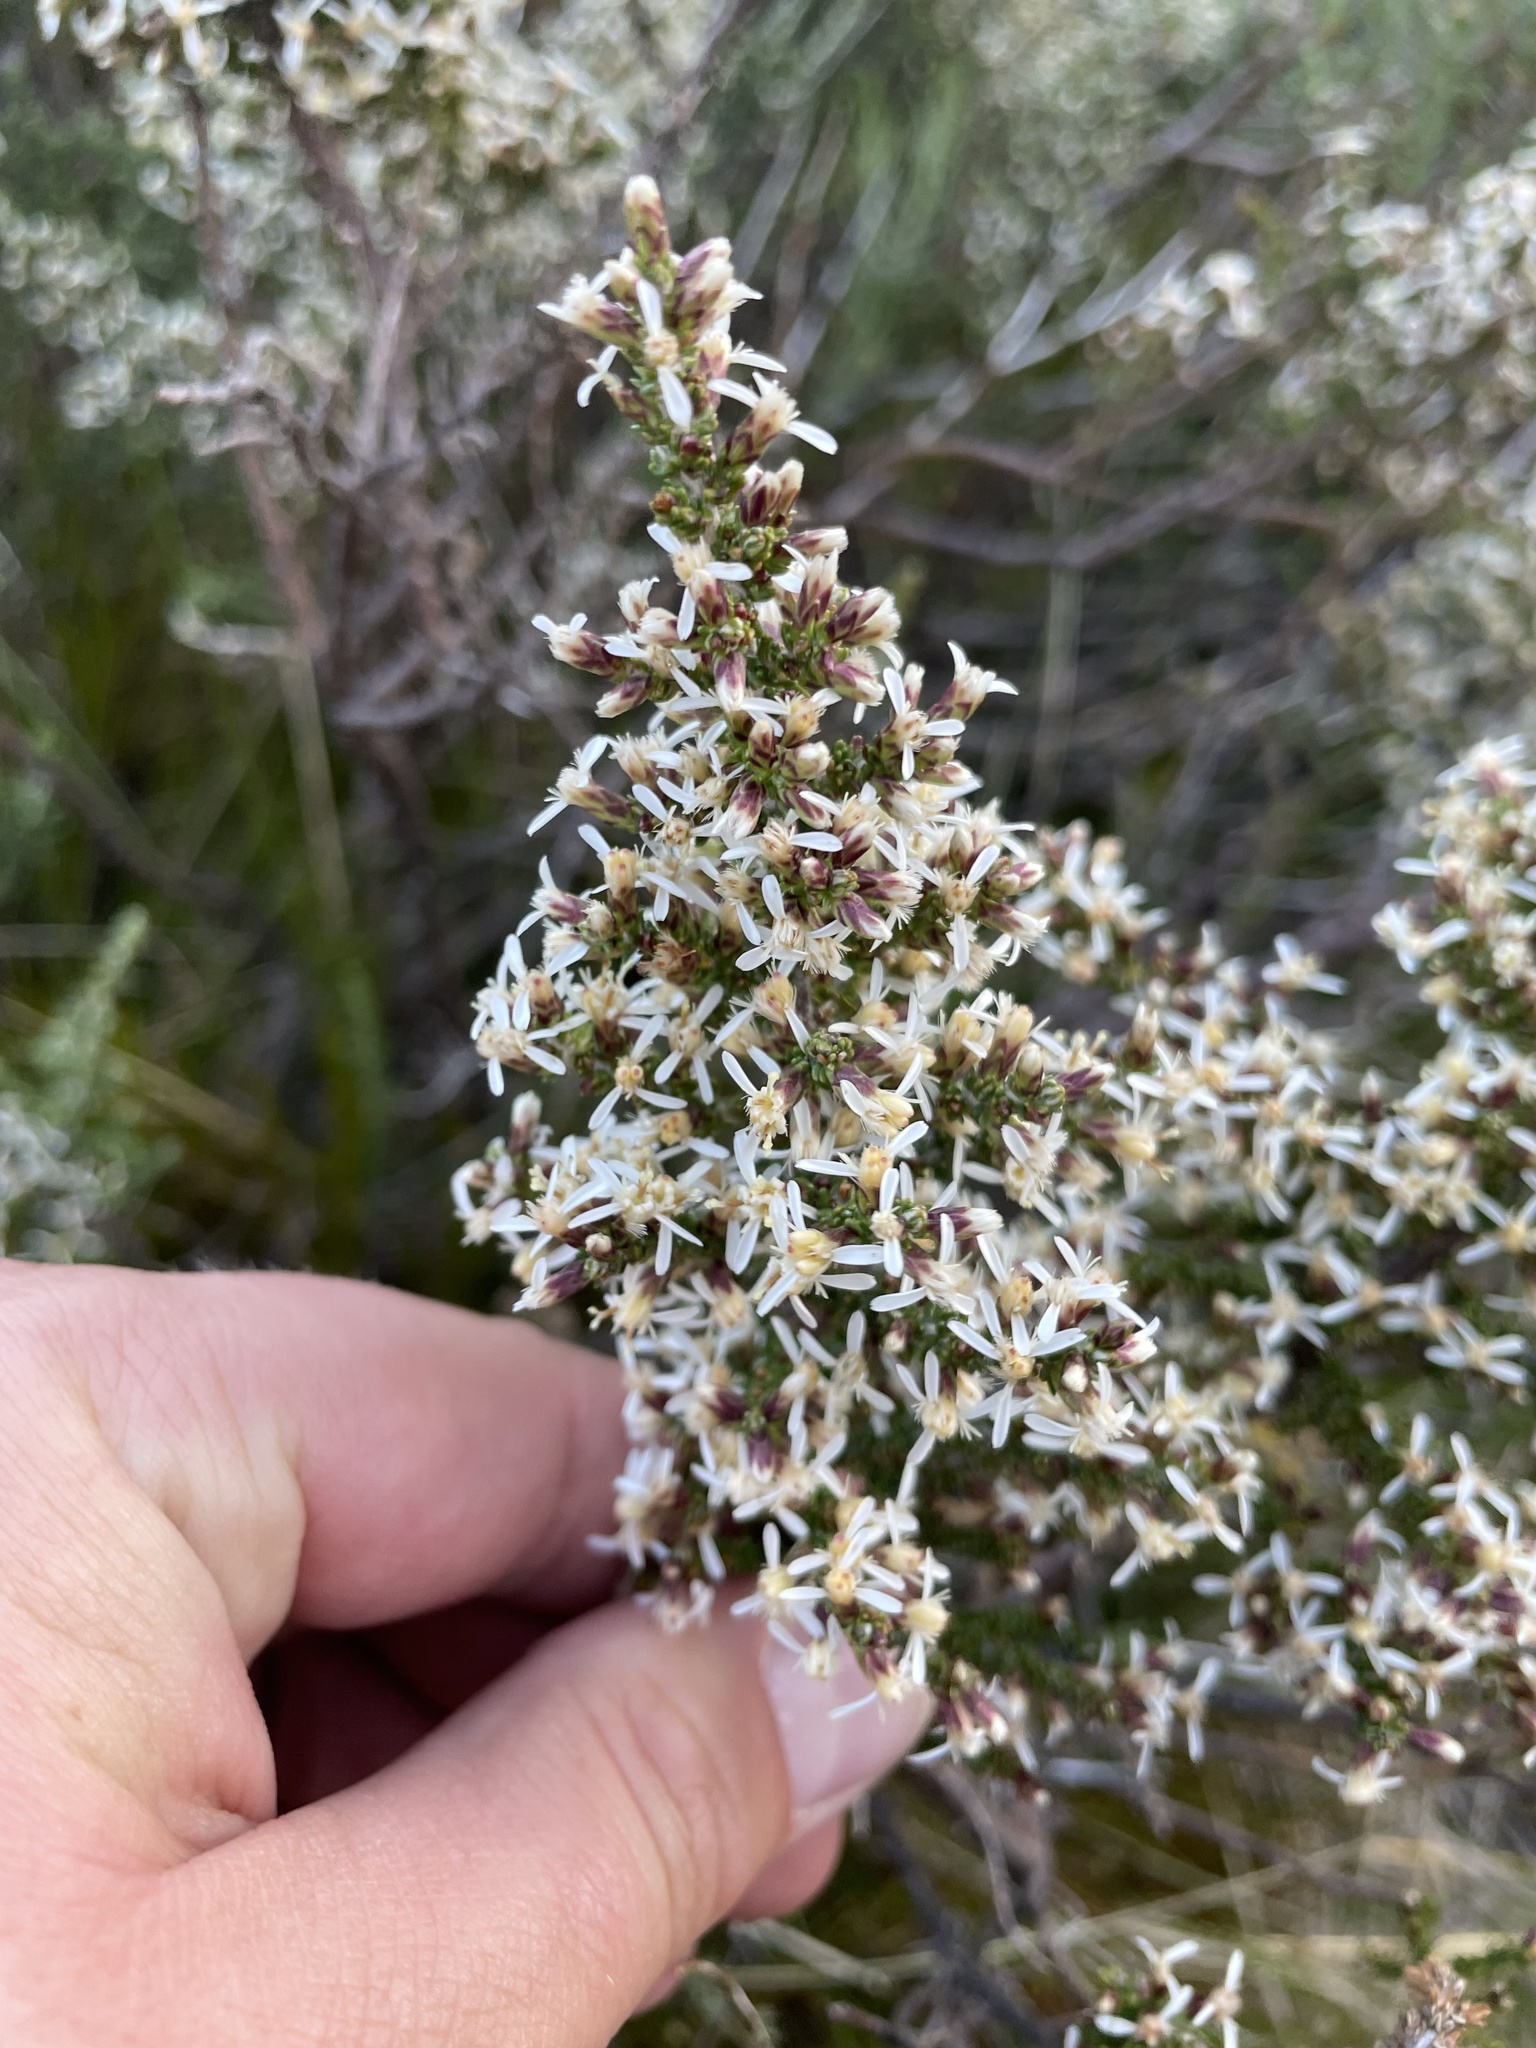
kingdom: Plantae
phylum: Tracheophyta
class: Magnoliopsida
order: Asterales
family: Asteraceae
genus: Olearia
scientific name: Olearia algida
